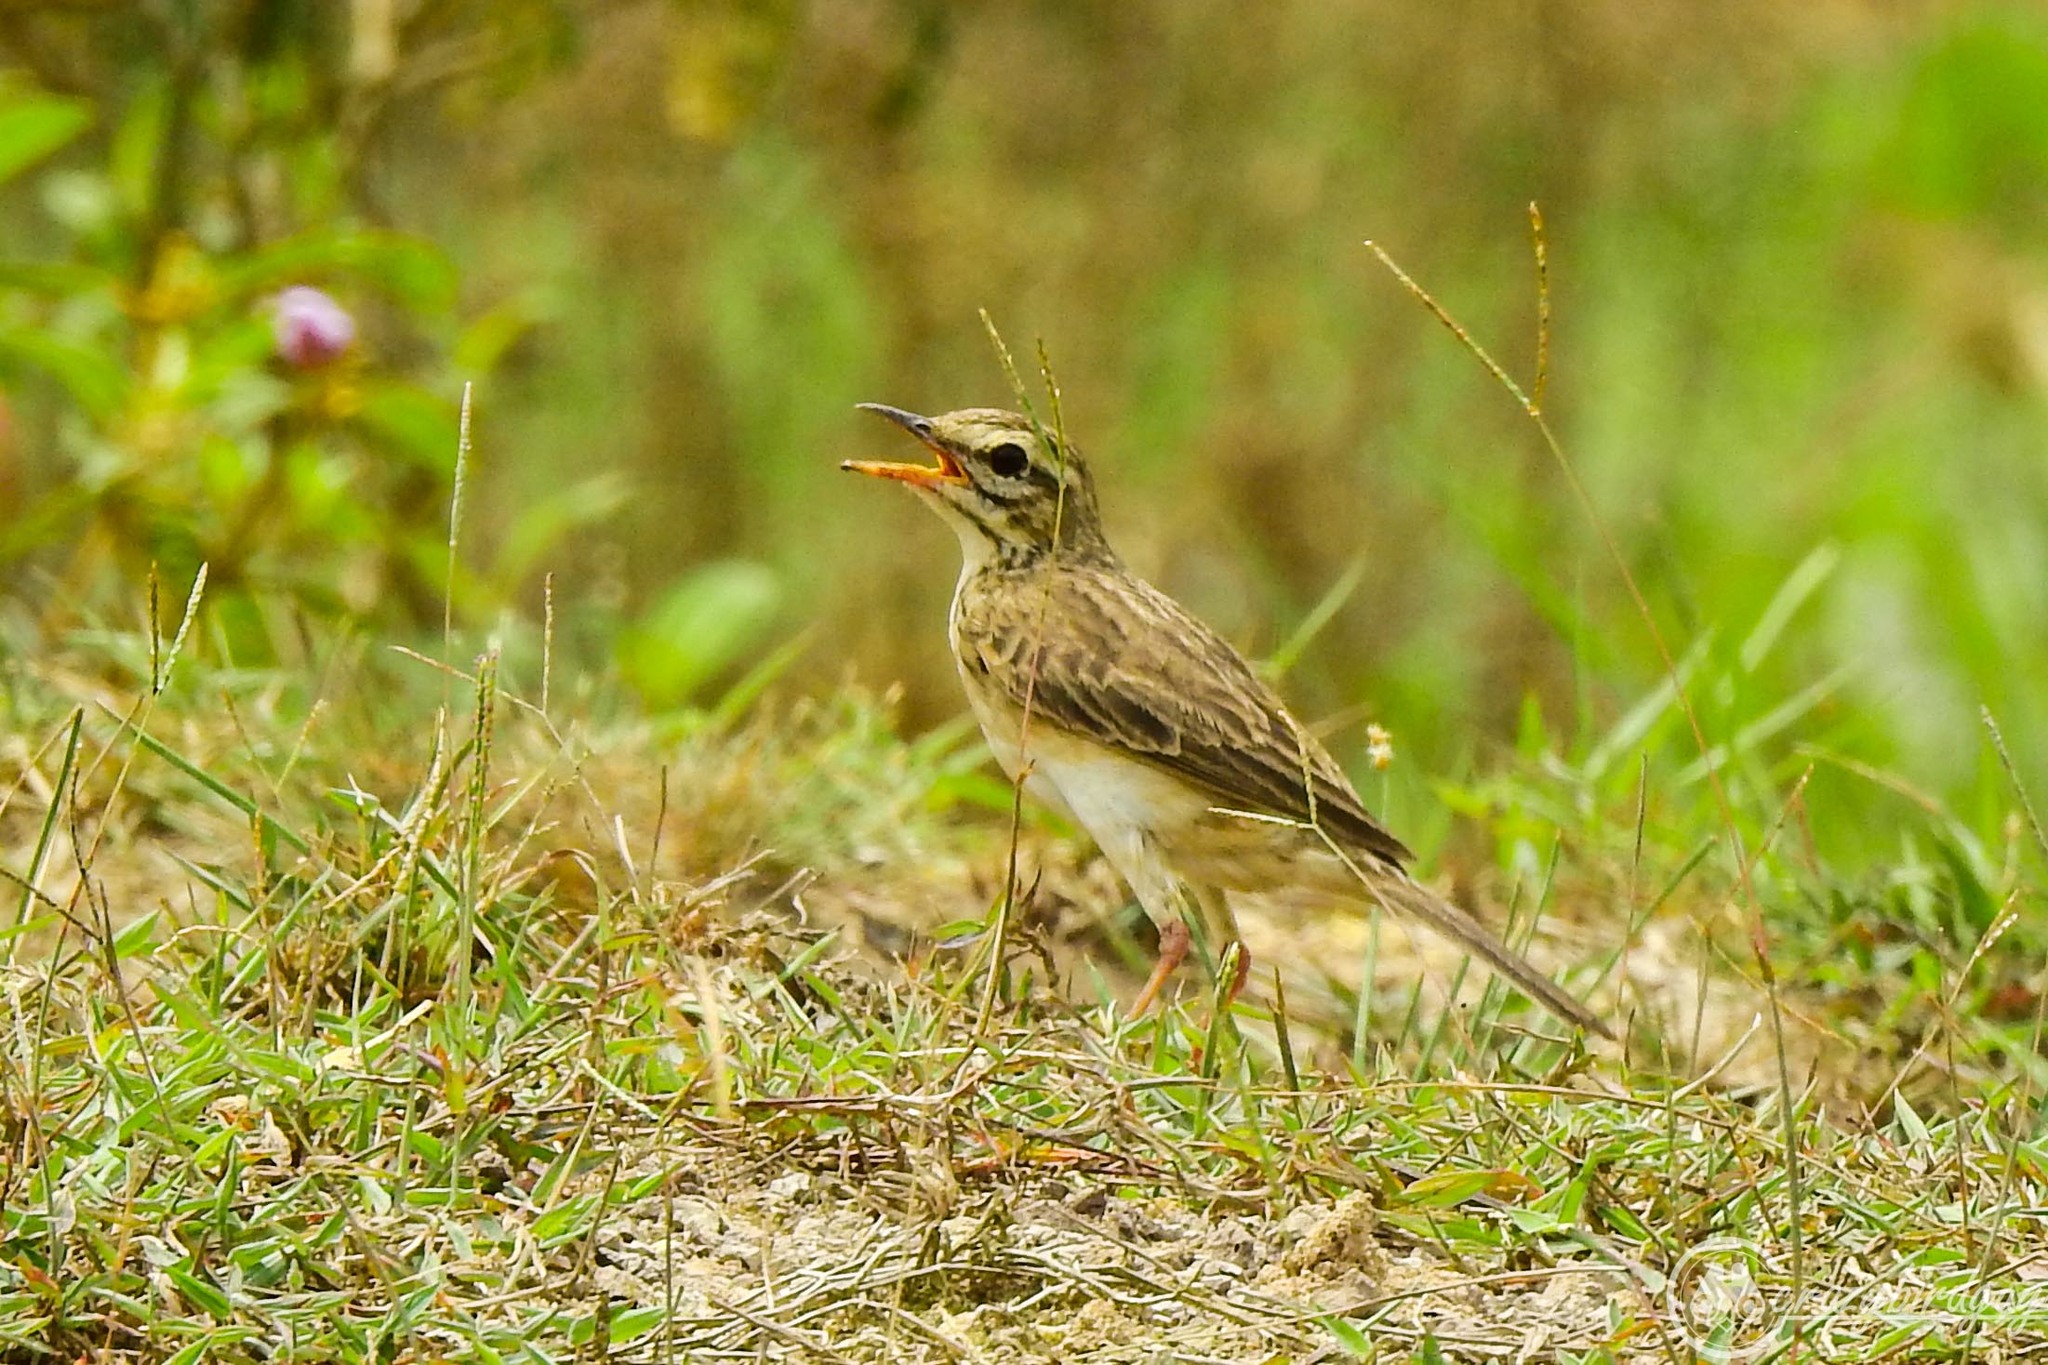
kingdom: Animalia
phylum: Chordata
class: Aves
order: Passeriformes
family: Motacillidae
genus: Anthus
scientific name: Anthus rufulus
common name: Paddyfield pipit
